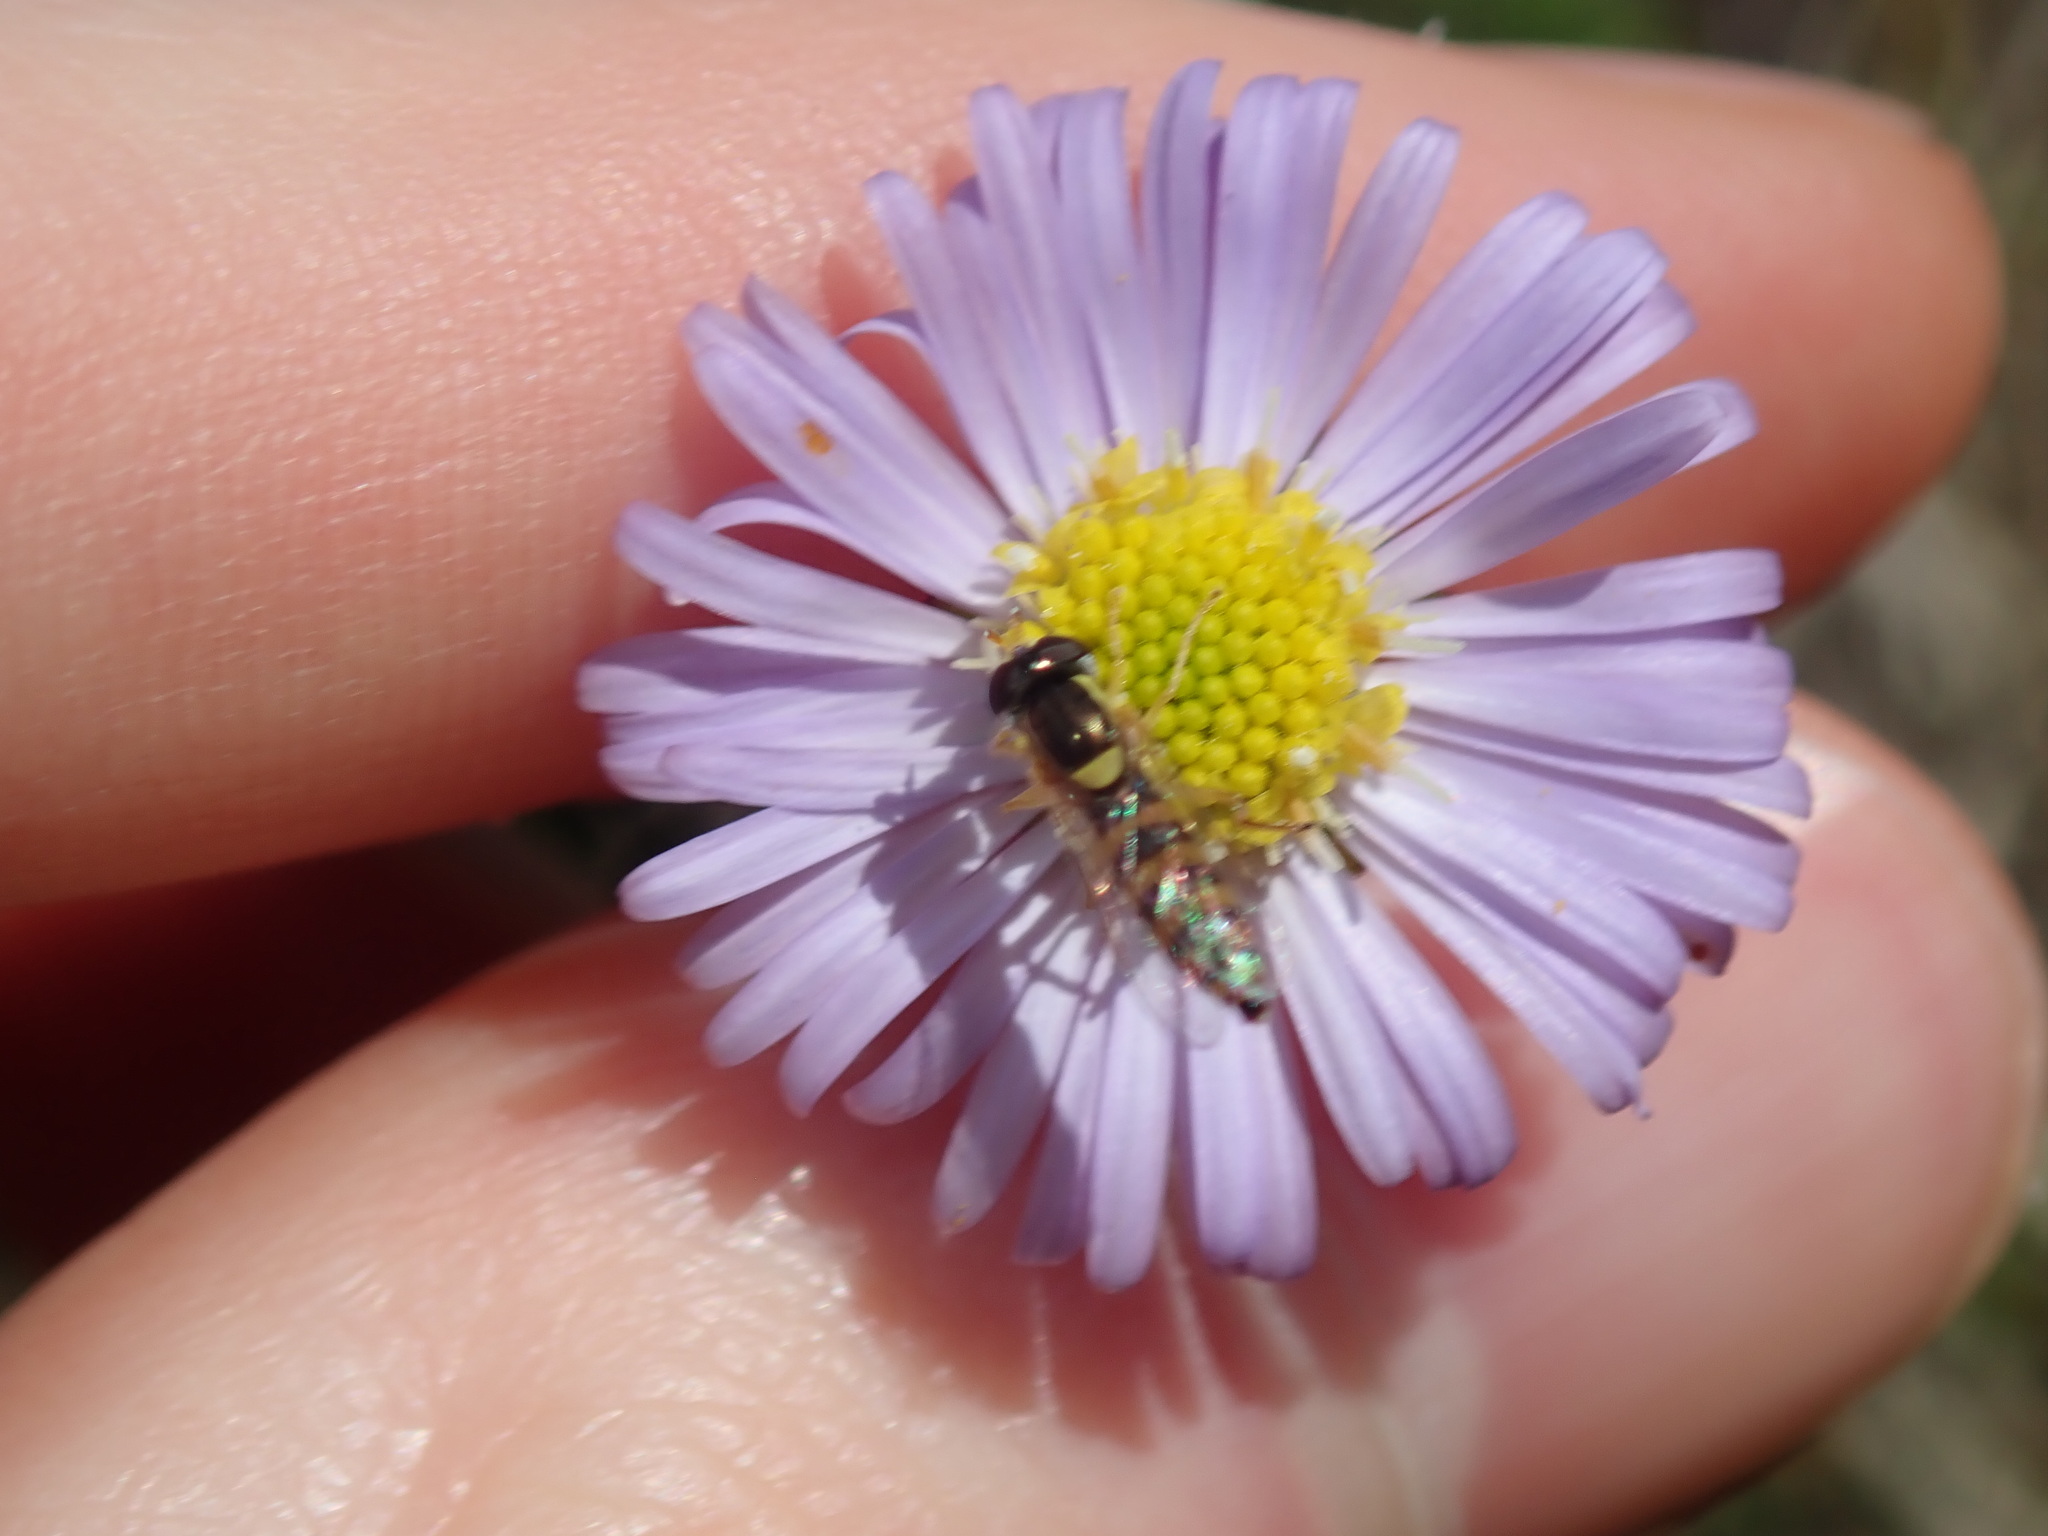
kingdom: Animalia
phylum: Arthropoda
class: Insecta
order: Diptera
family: Syrphidae
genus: Sphaerophoria
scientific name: Sphaerophoria macrogaster
